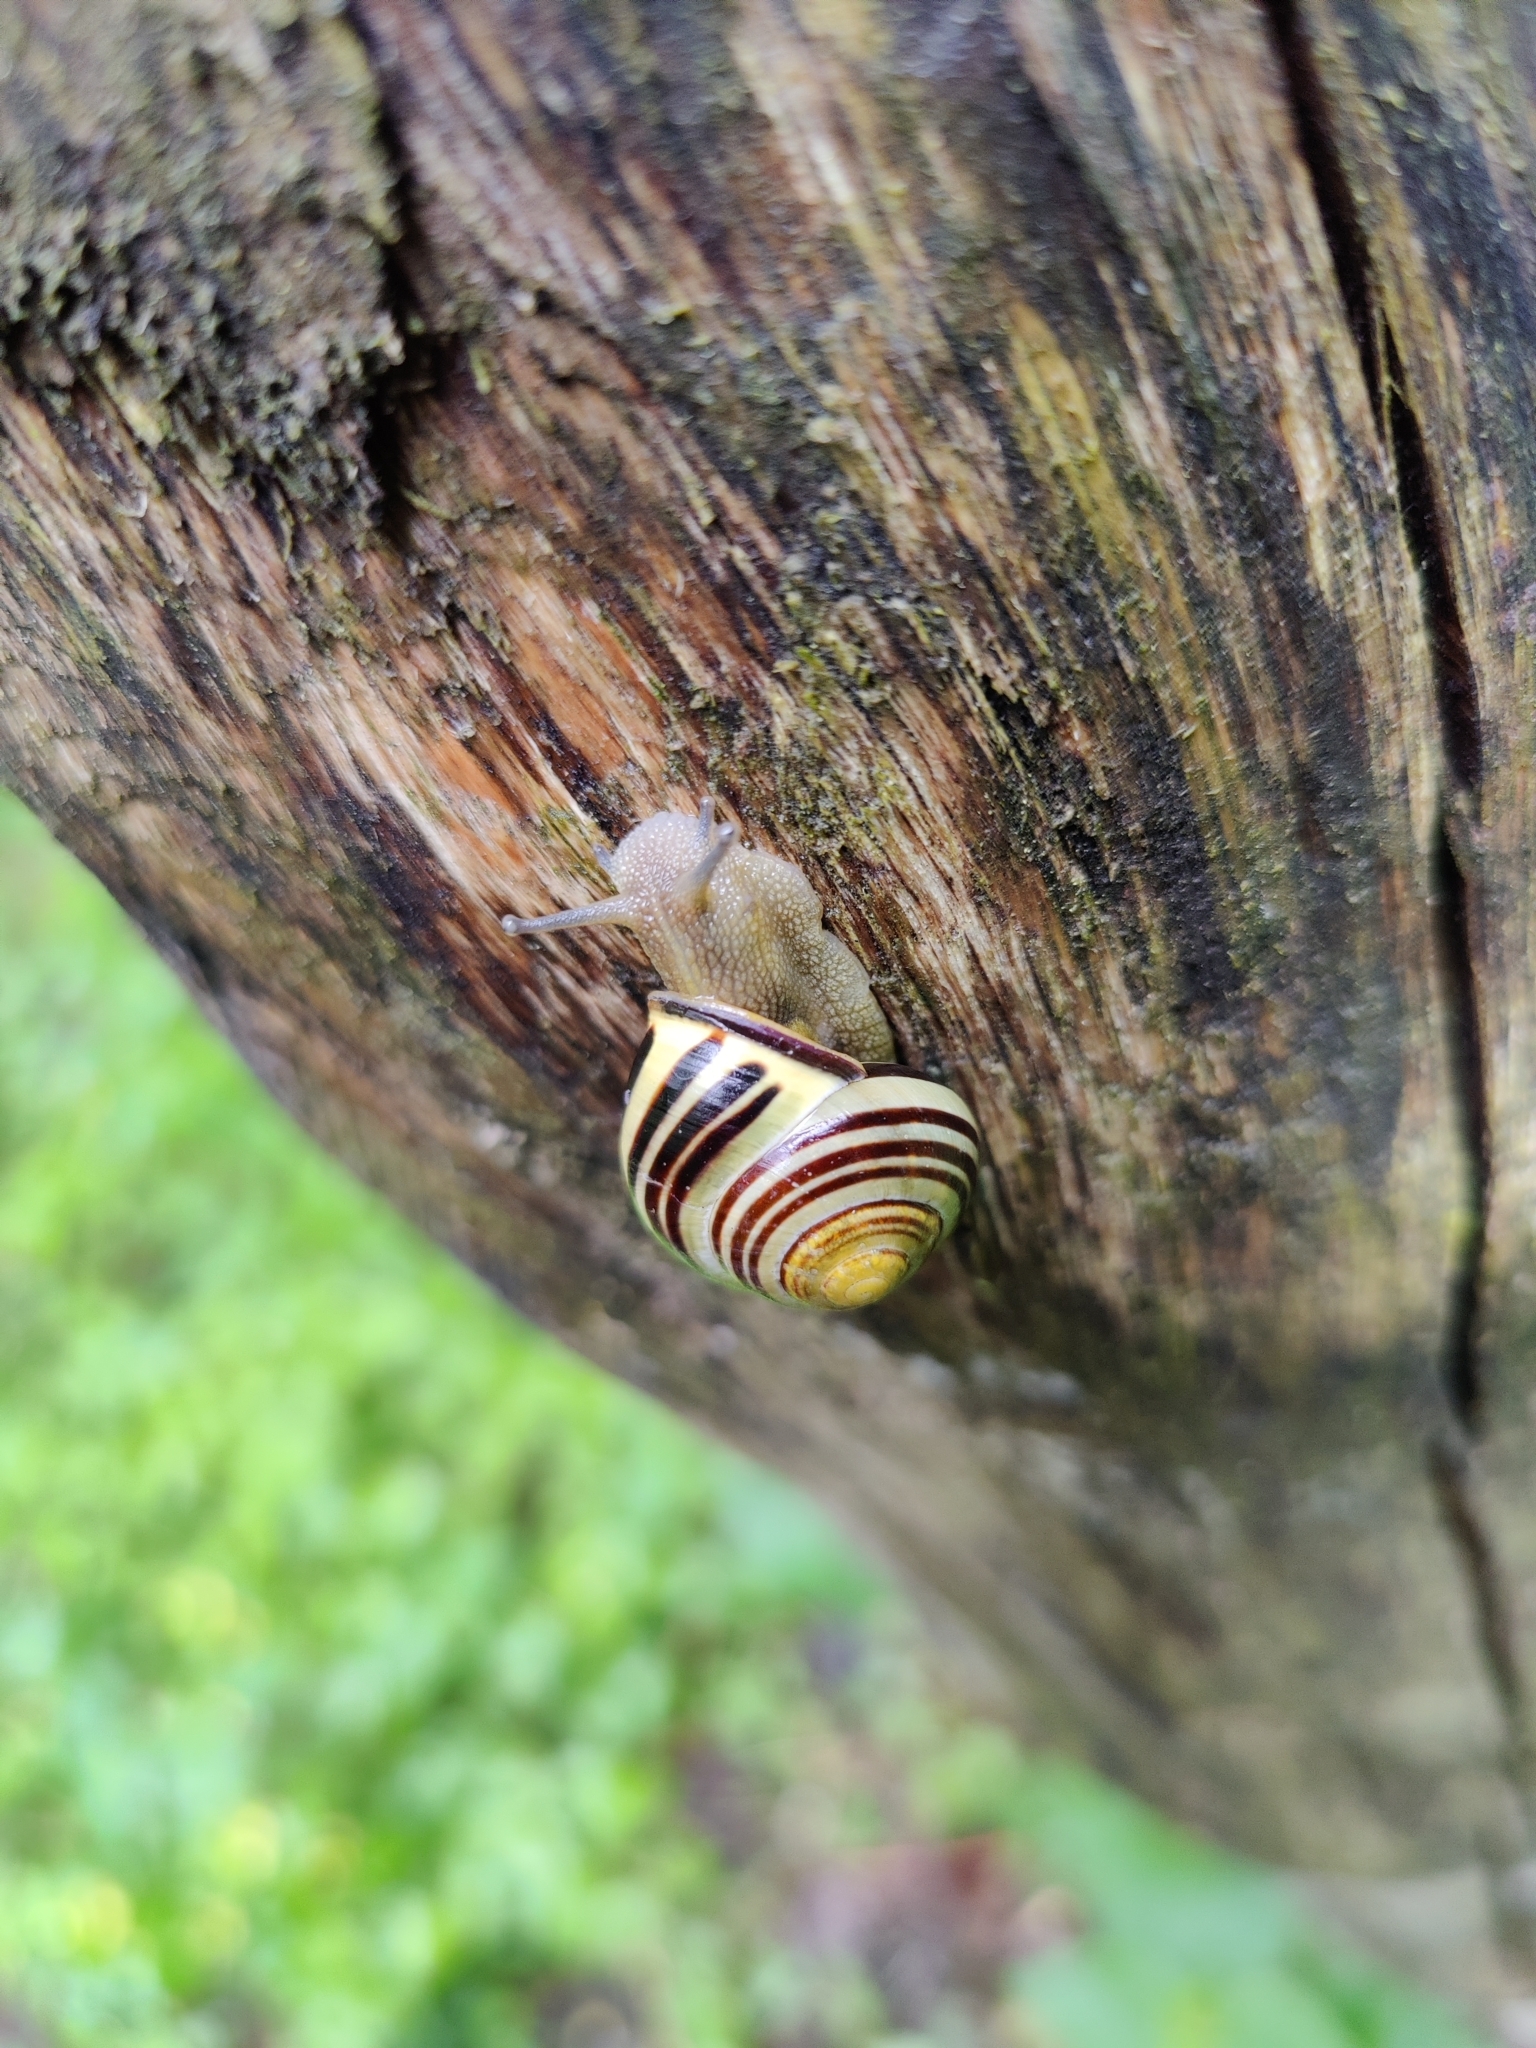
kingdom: Animalia
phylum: Mollusca
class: Gastropoda
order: Stylommatophora
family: Helicidae
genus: Cepaea
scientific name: Cepaea nemoralis
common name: Grovesnail
